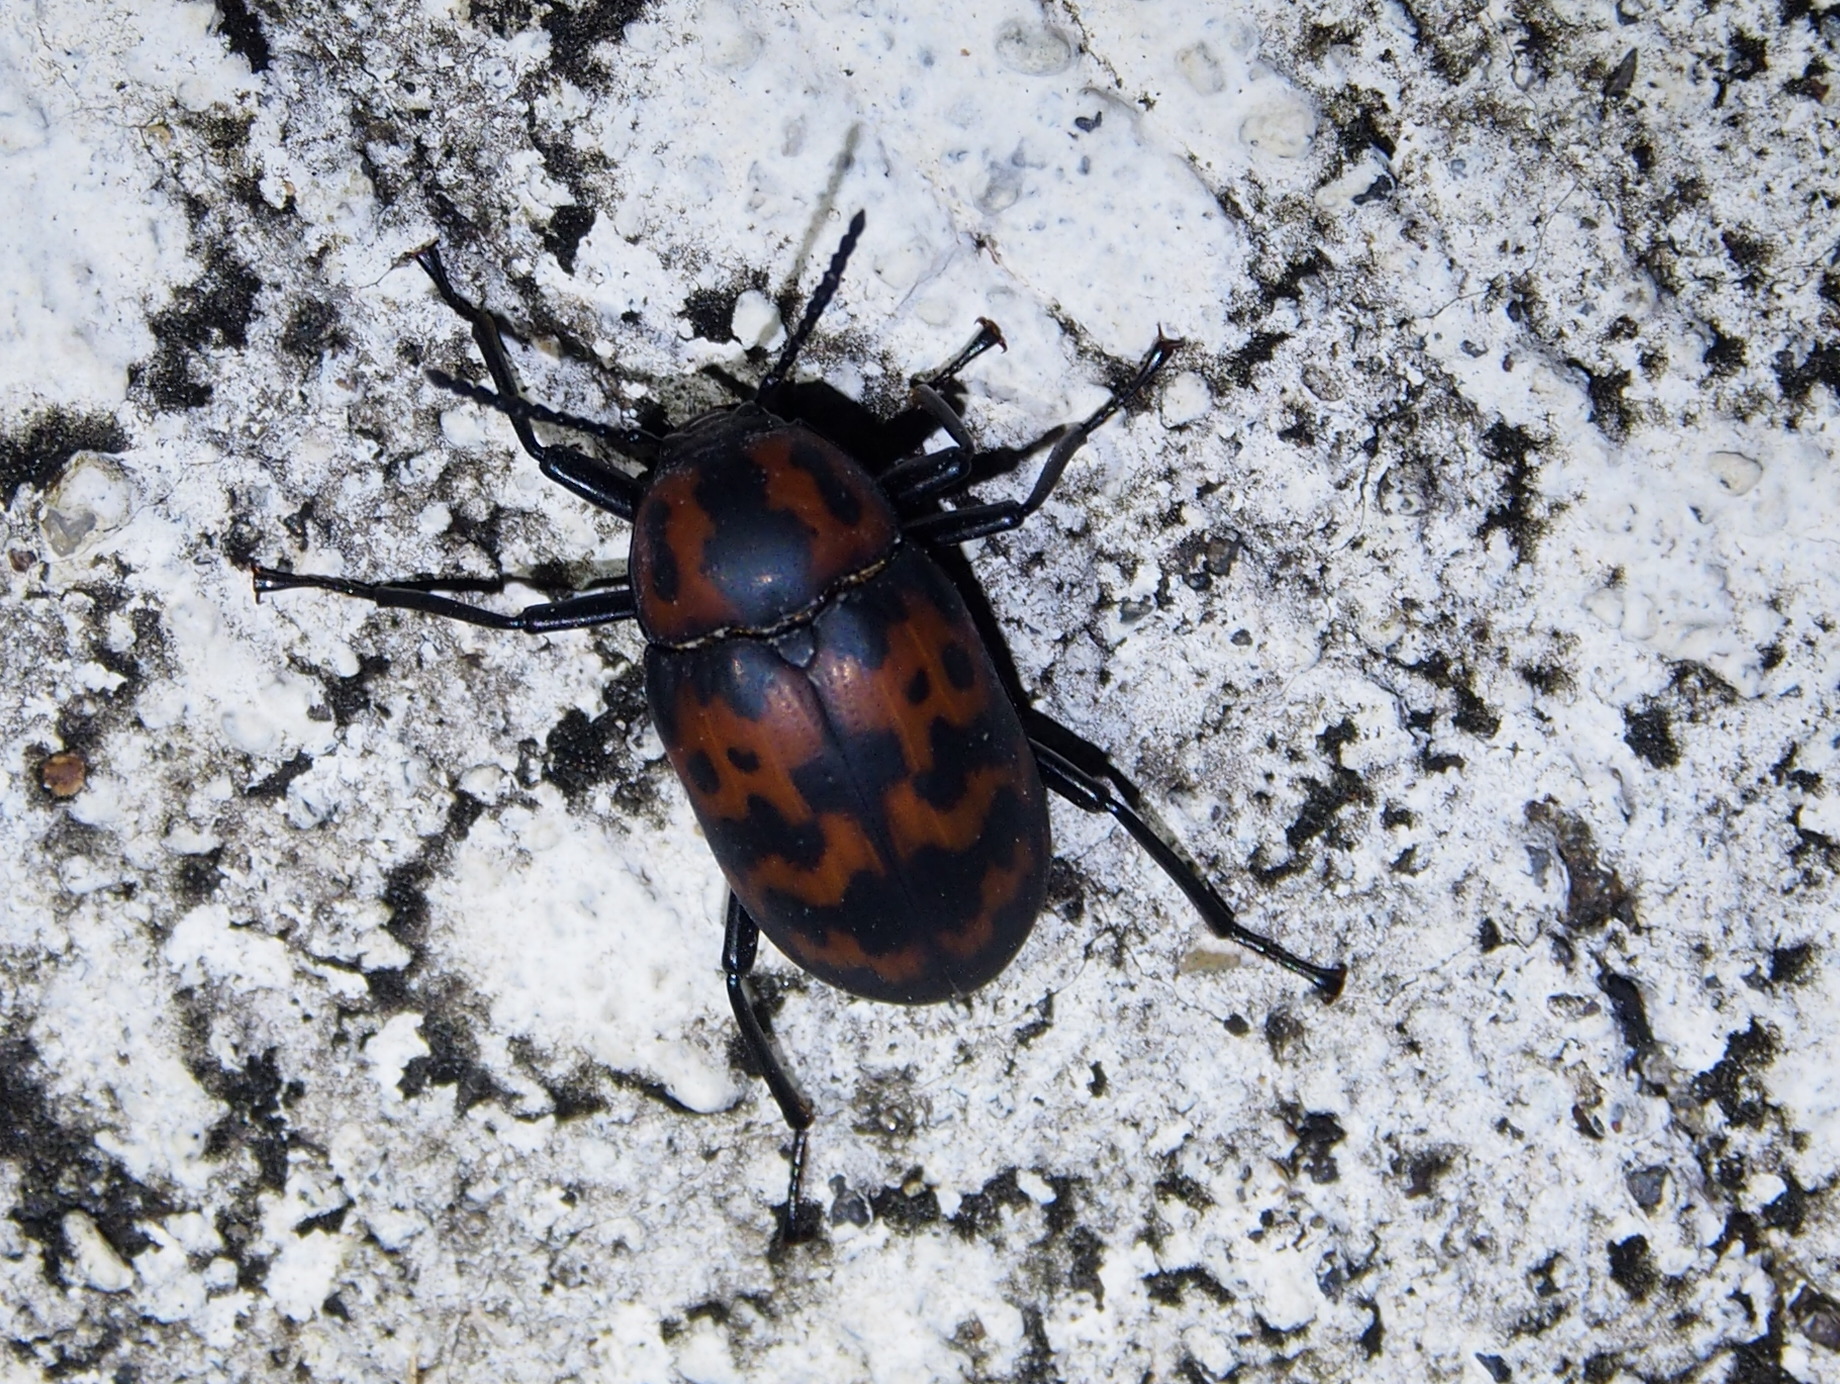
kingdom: Animalia
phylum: Arthropoda
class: Insecta
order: Coleoptera
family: Tenebrionidae
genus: Cymatothes
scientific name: Cymatothes nebulosus
